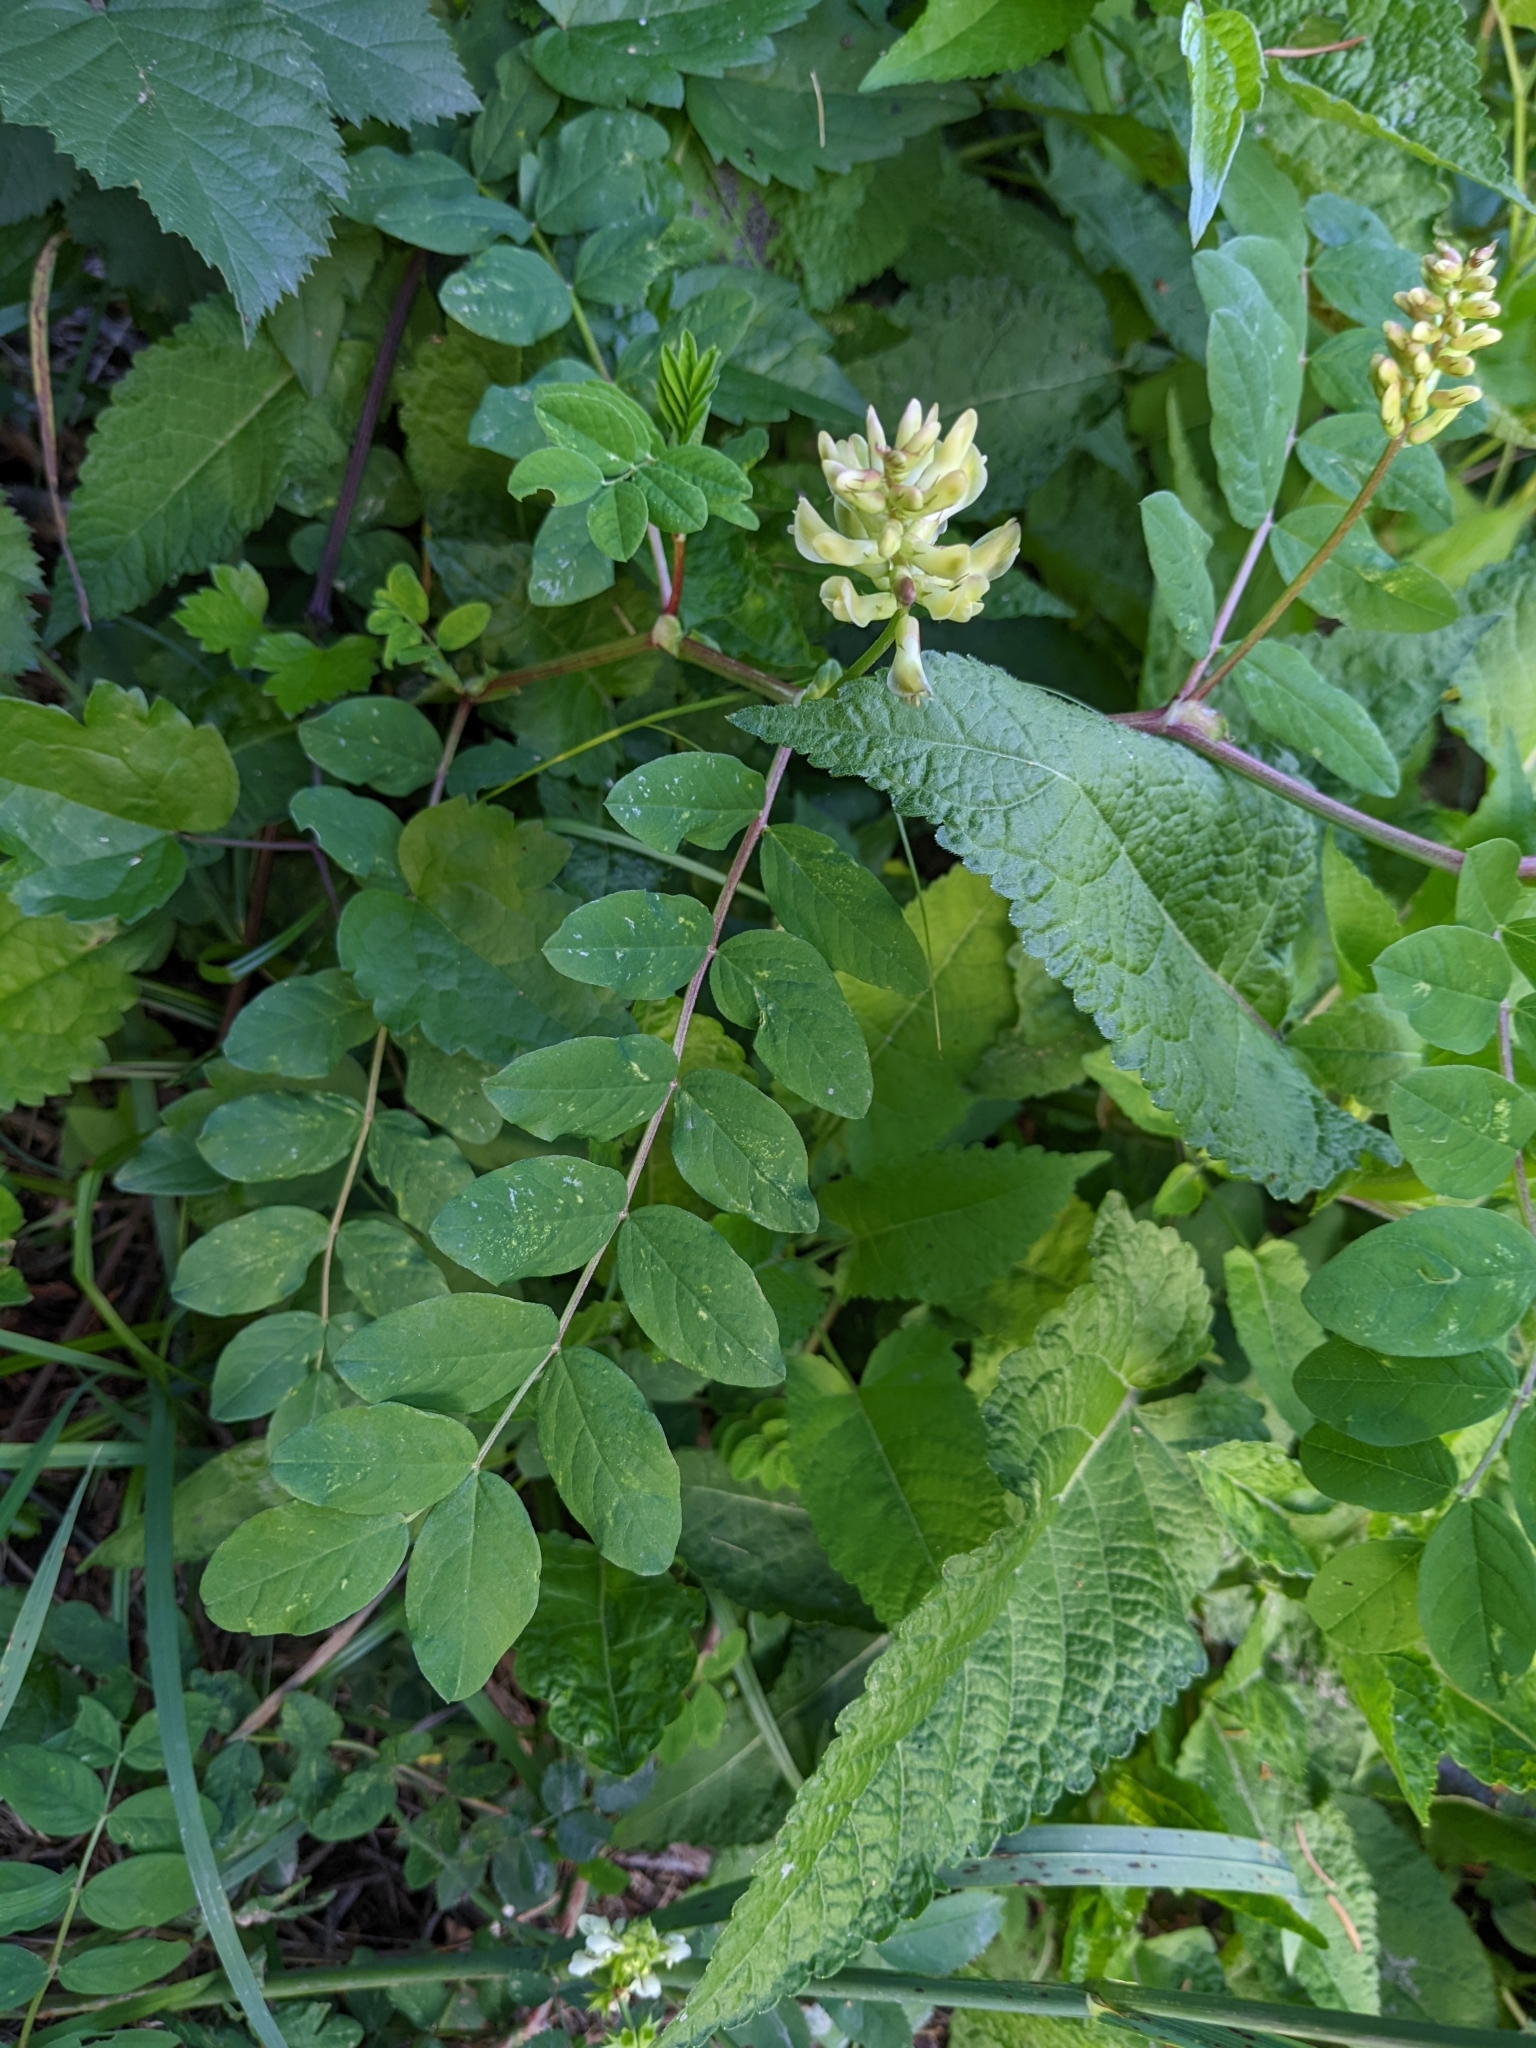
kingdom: Plantae
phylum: Tracheophyta
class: Magnoliopsida
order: Fabales
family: Fabaceae
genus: Astragalus
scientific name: Astragalus glycyphyllos
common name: Wild liquorice
